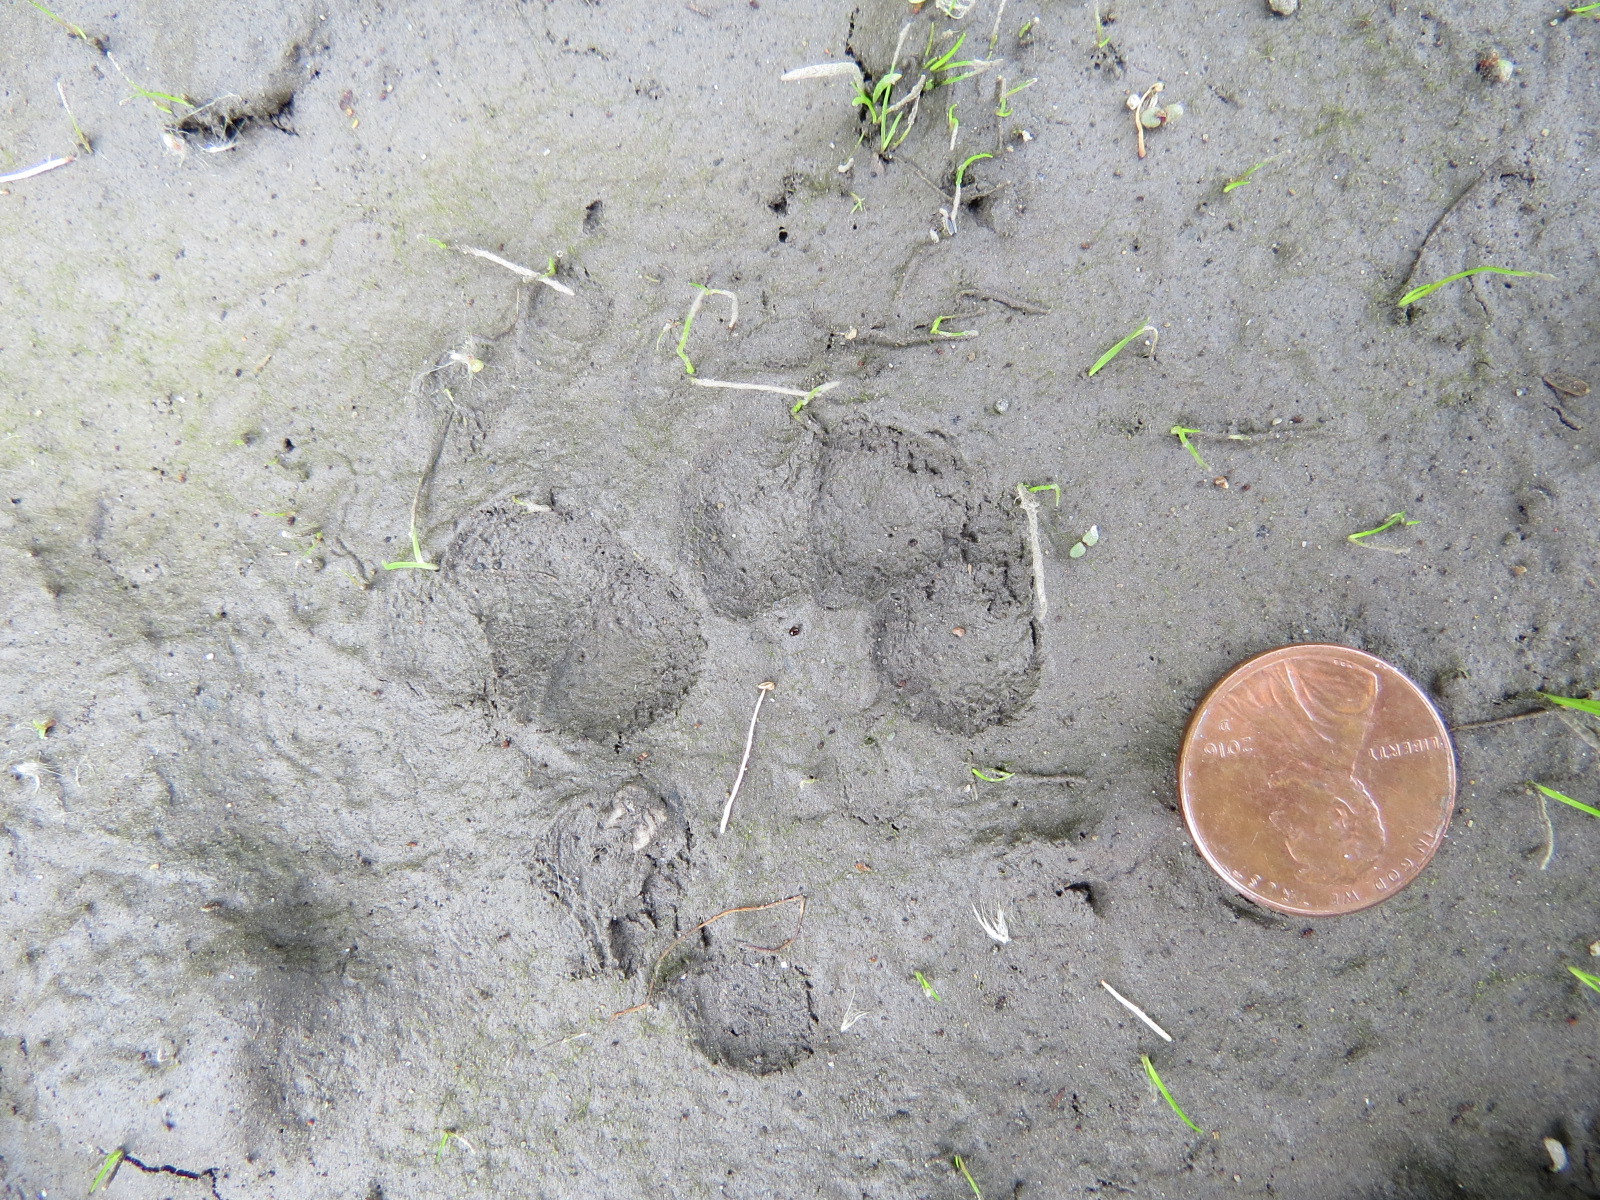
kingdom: Animalia
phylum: Chordata
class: Mammalia
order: Didelphimorphia
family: Didelphidae
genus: Didelphis
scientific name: Didelphis virginiana
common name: Virginia opossum
